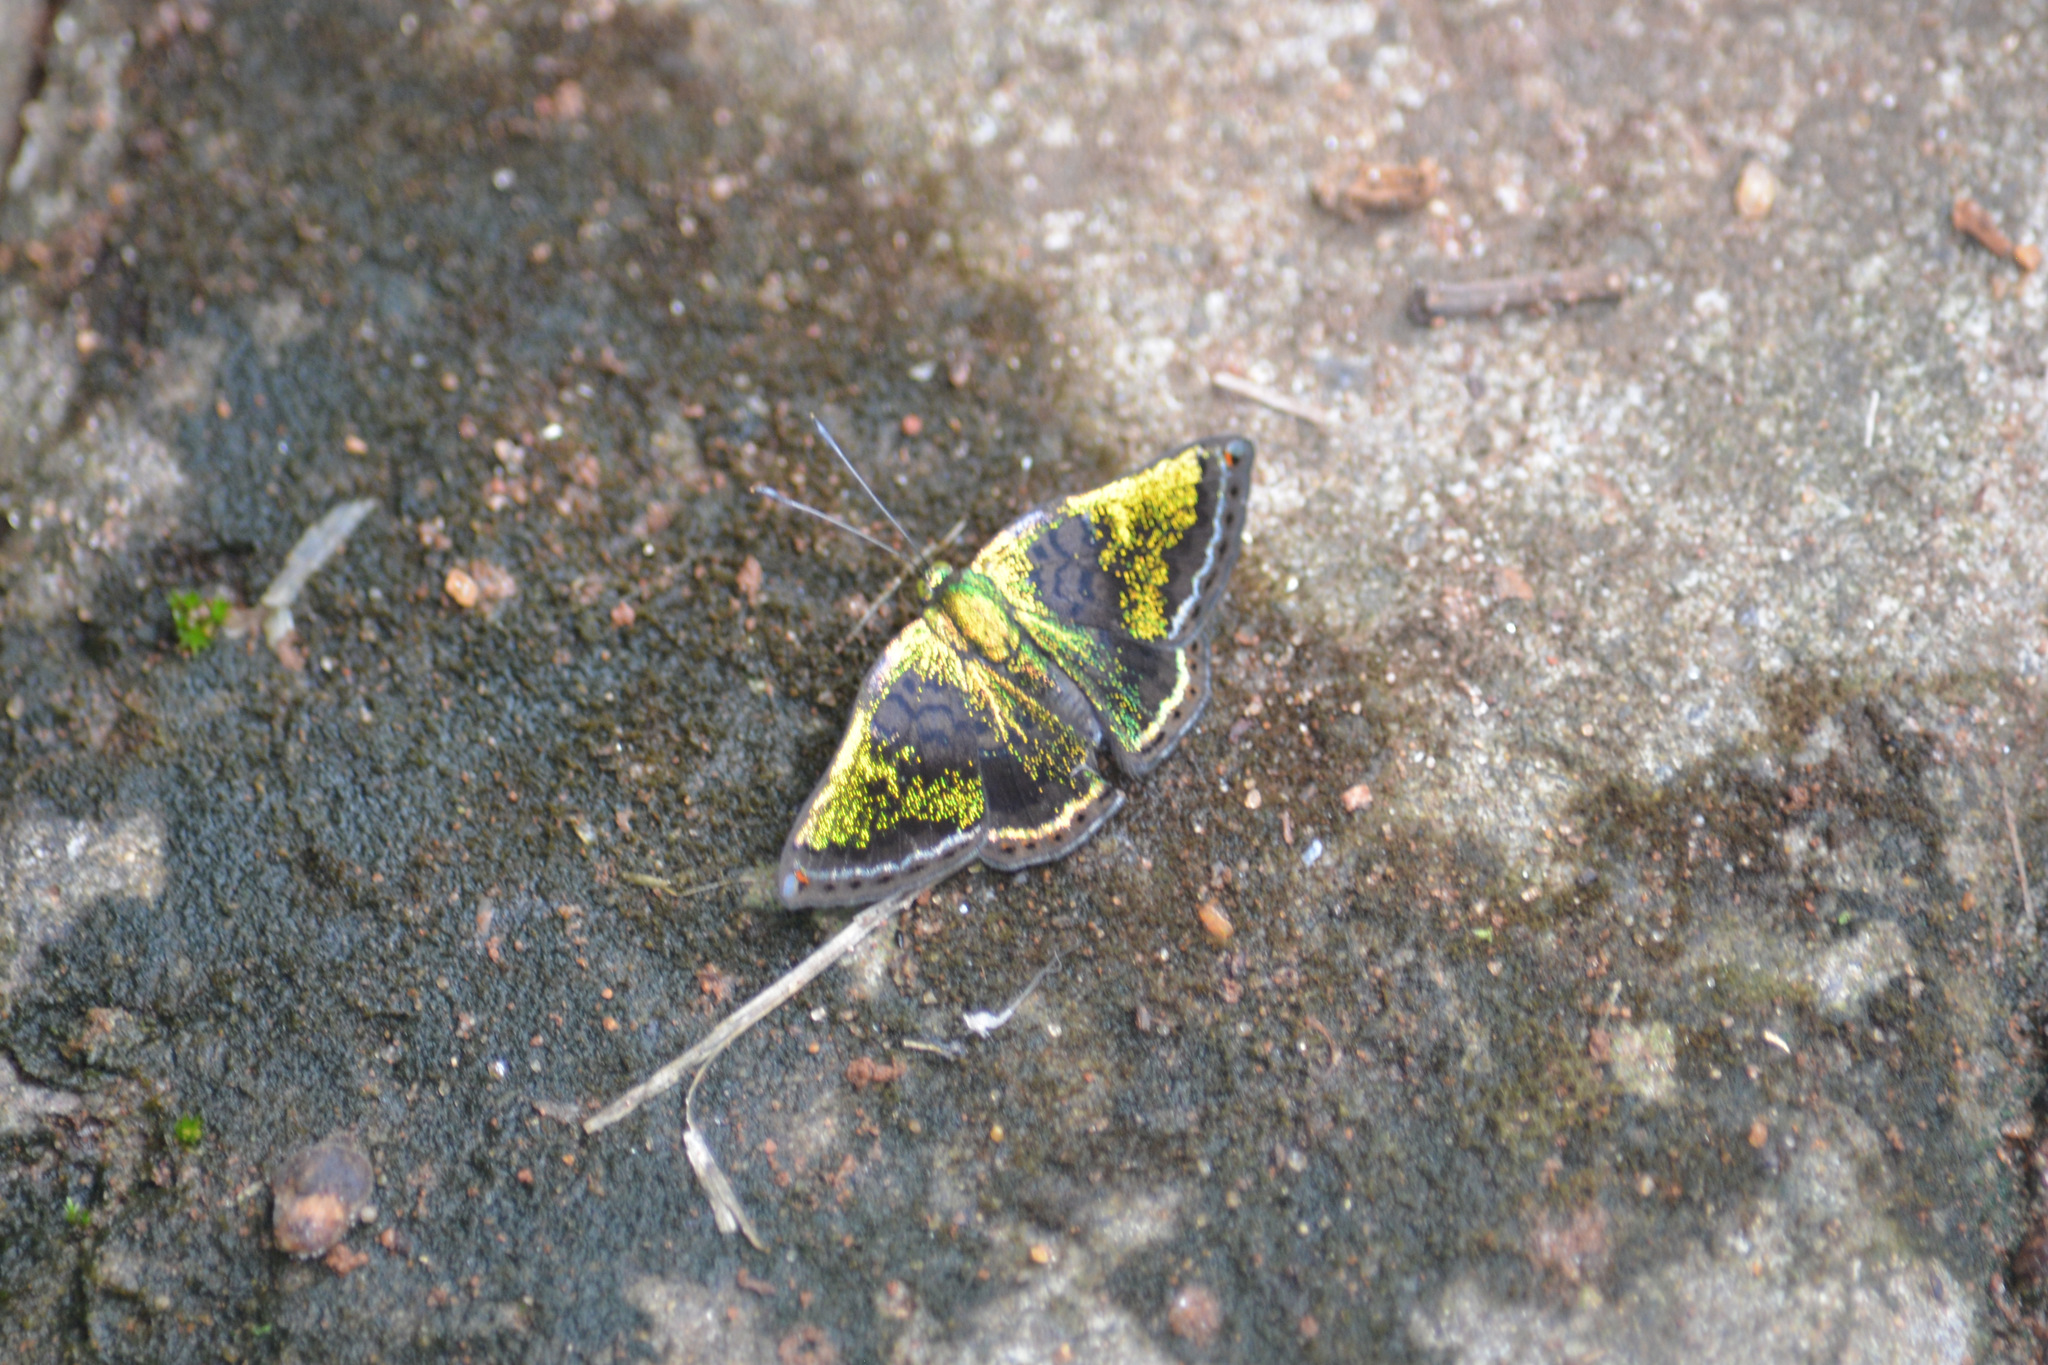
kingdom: Animalia
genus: Caria
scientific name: Caria castalia
